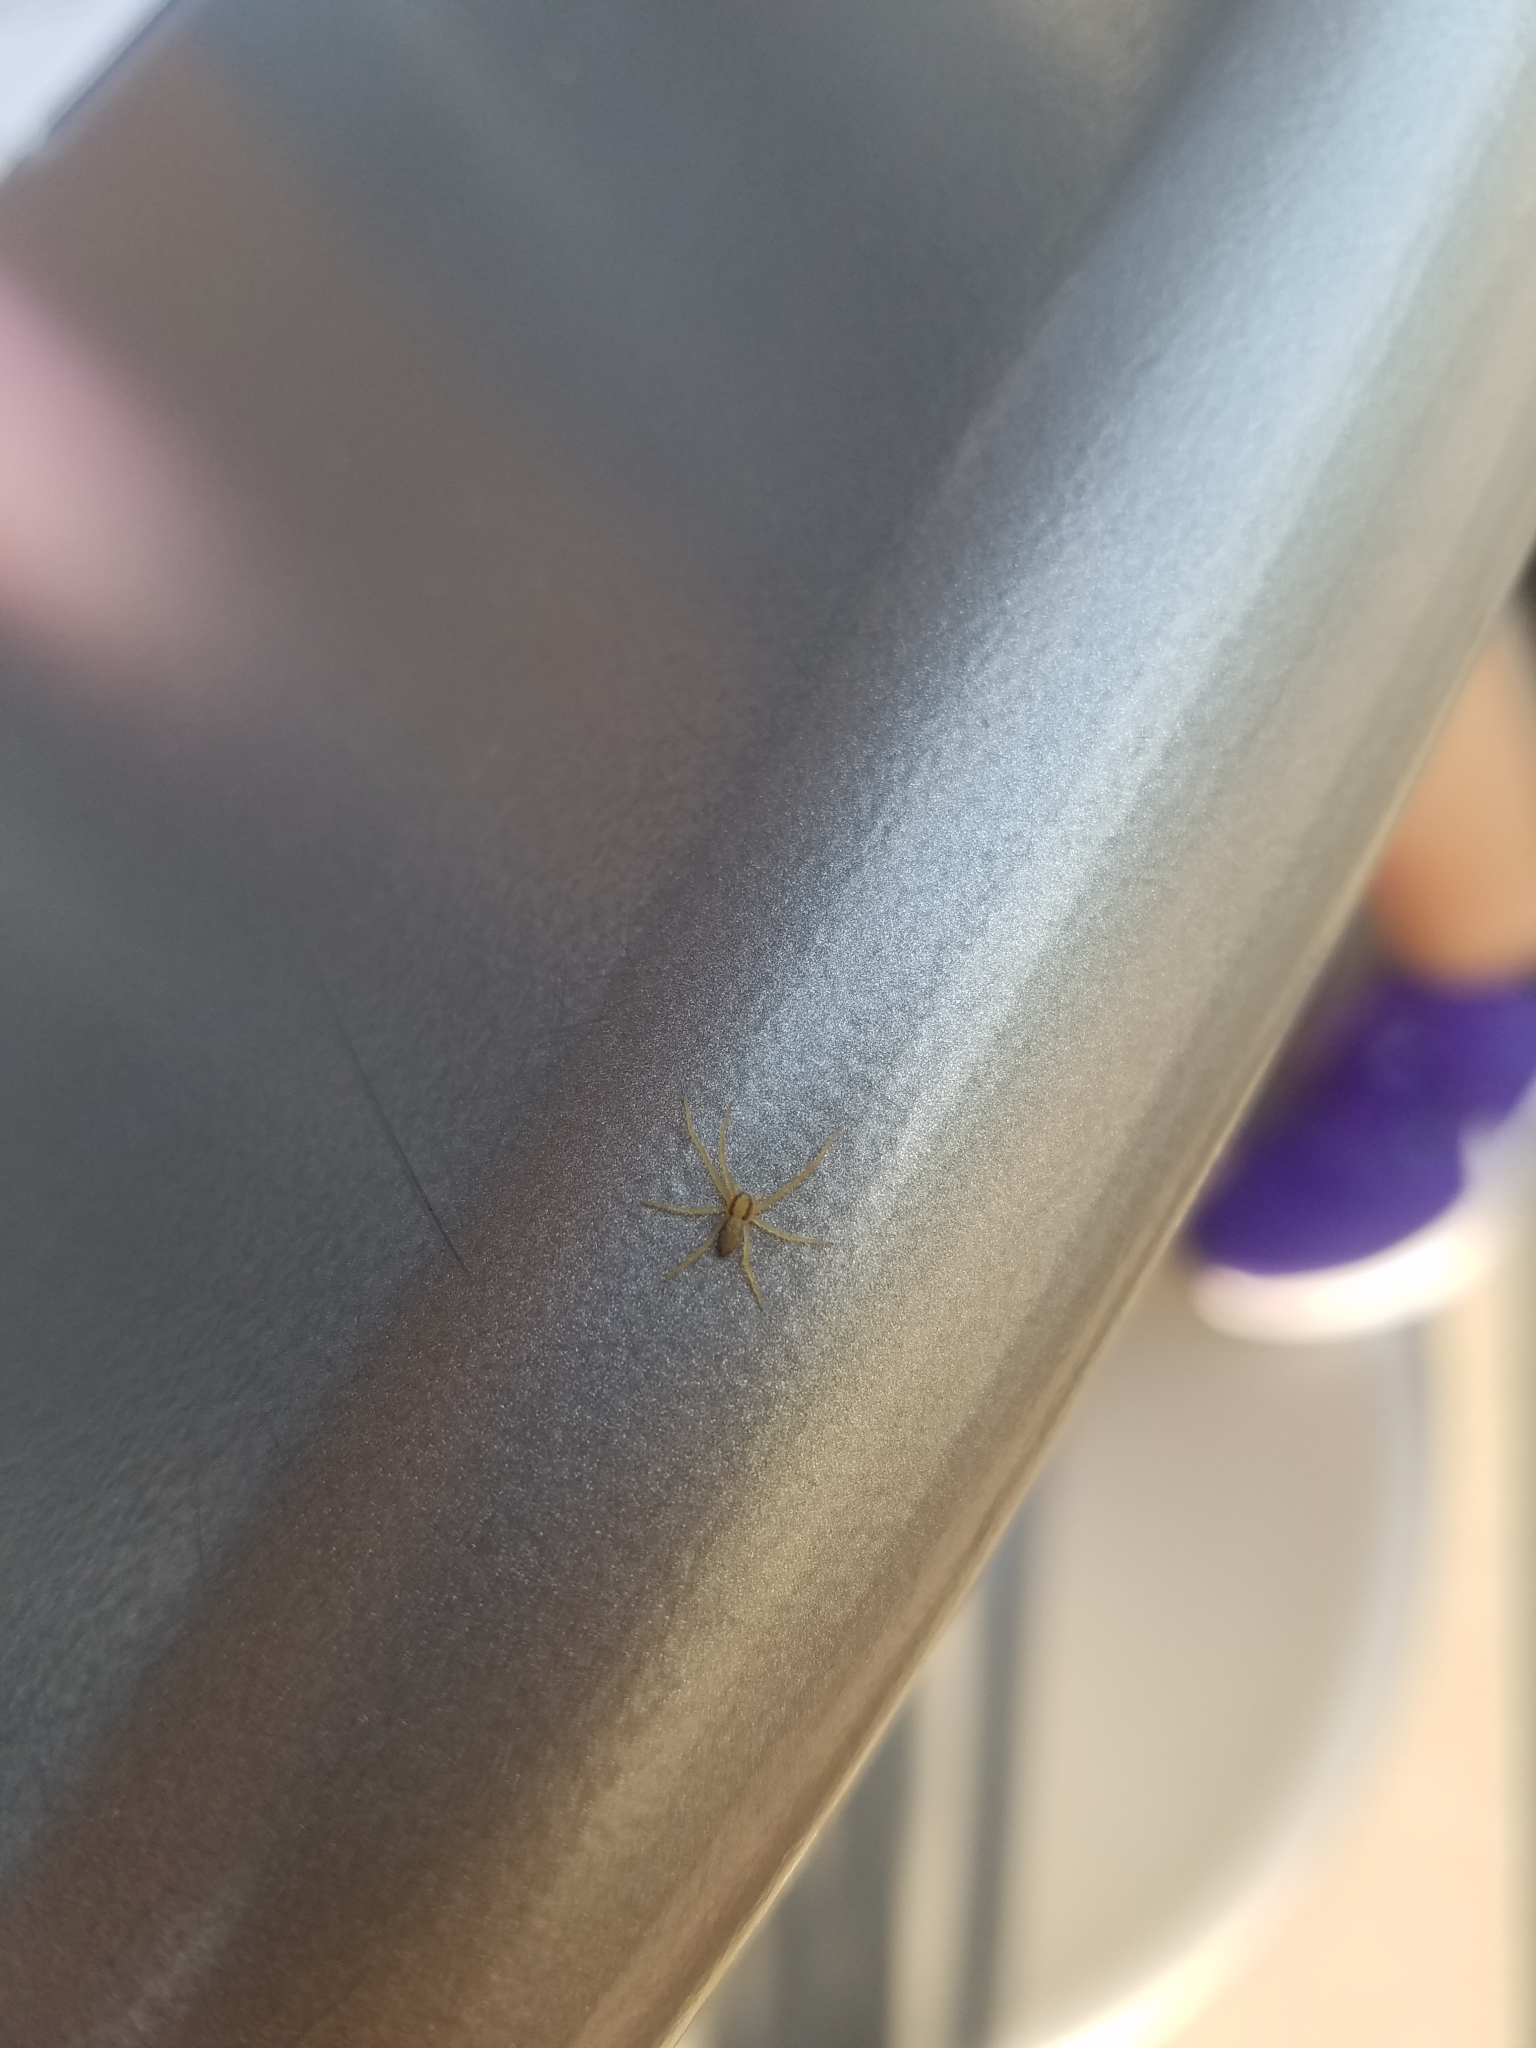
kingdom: Animalia
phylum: Arthropoda
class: Arachnida
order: Araneae
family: Cheiracanthiidae
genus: Cheiracanthium
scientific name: Cheiracanthium mildei
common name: Northern yellow sac spider
